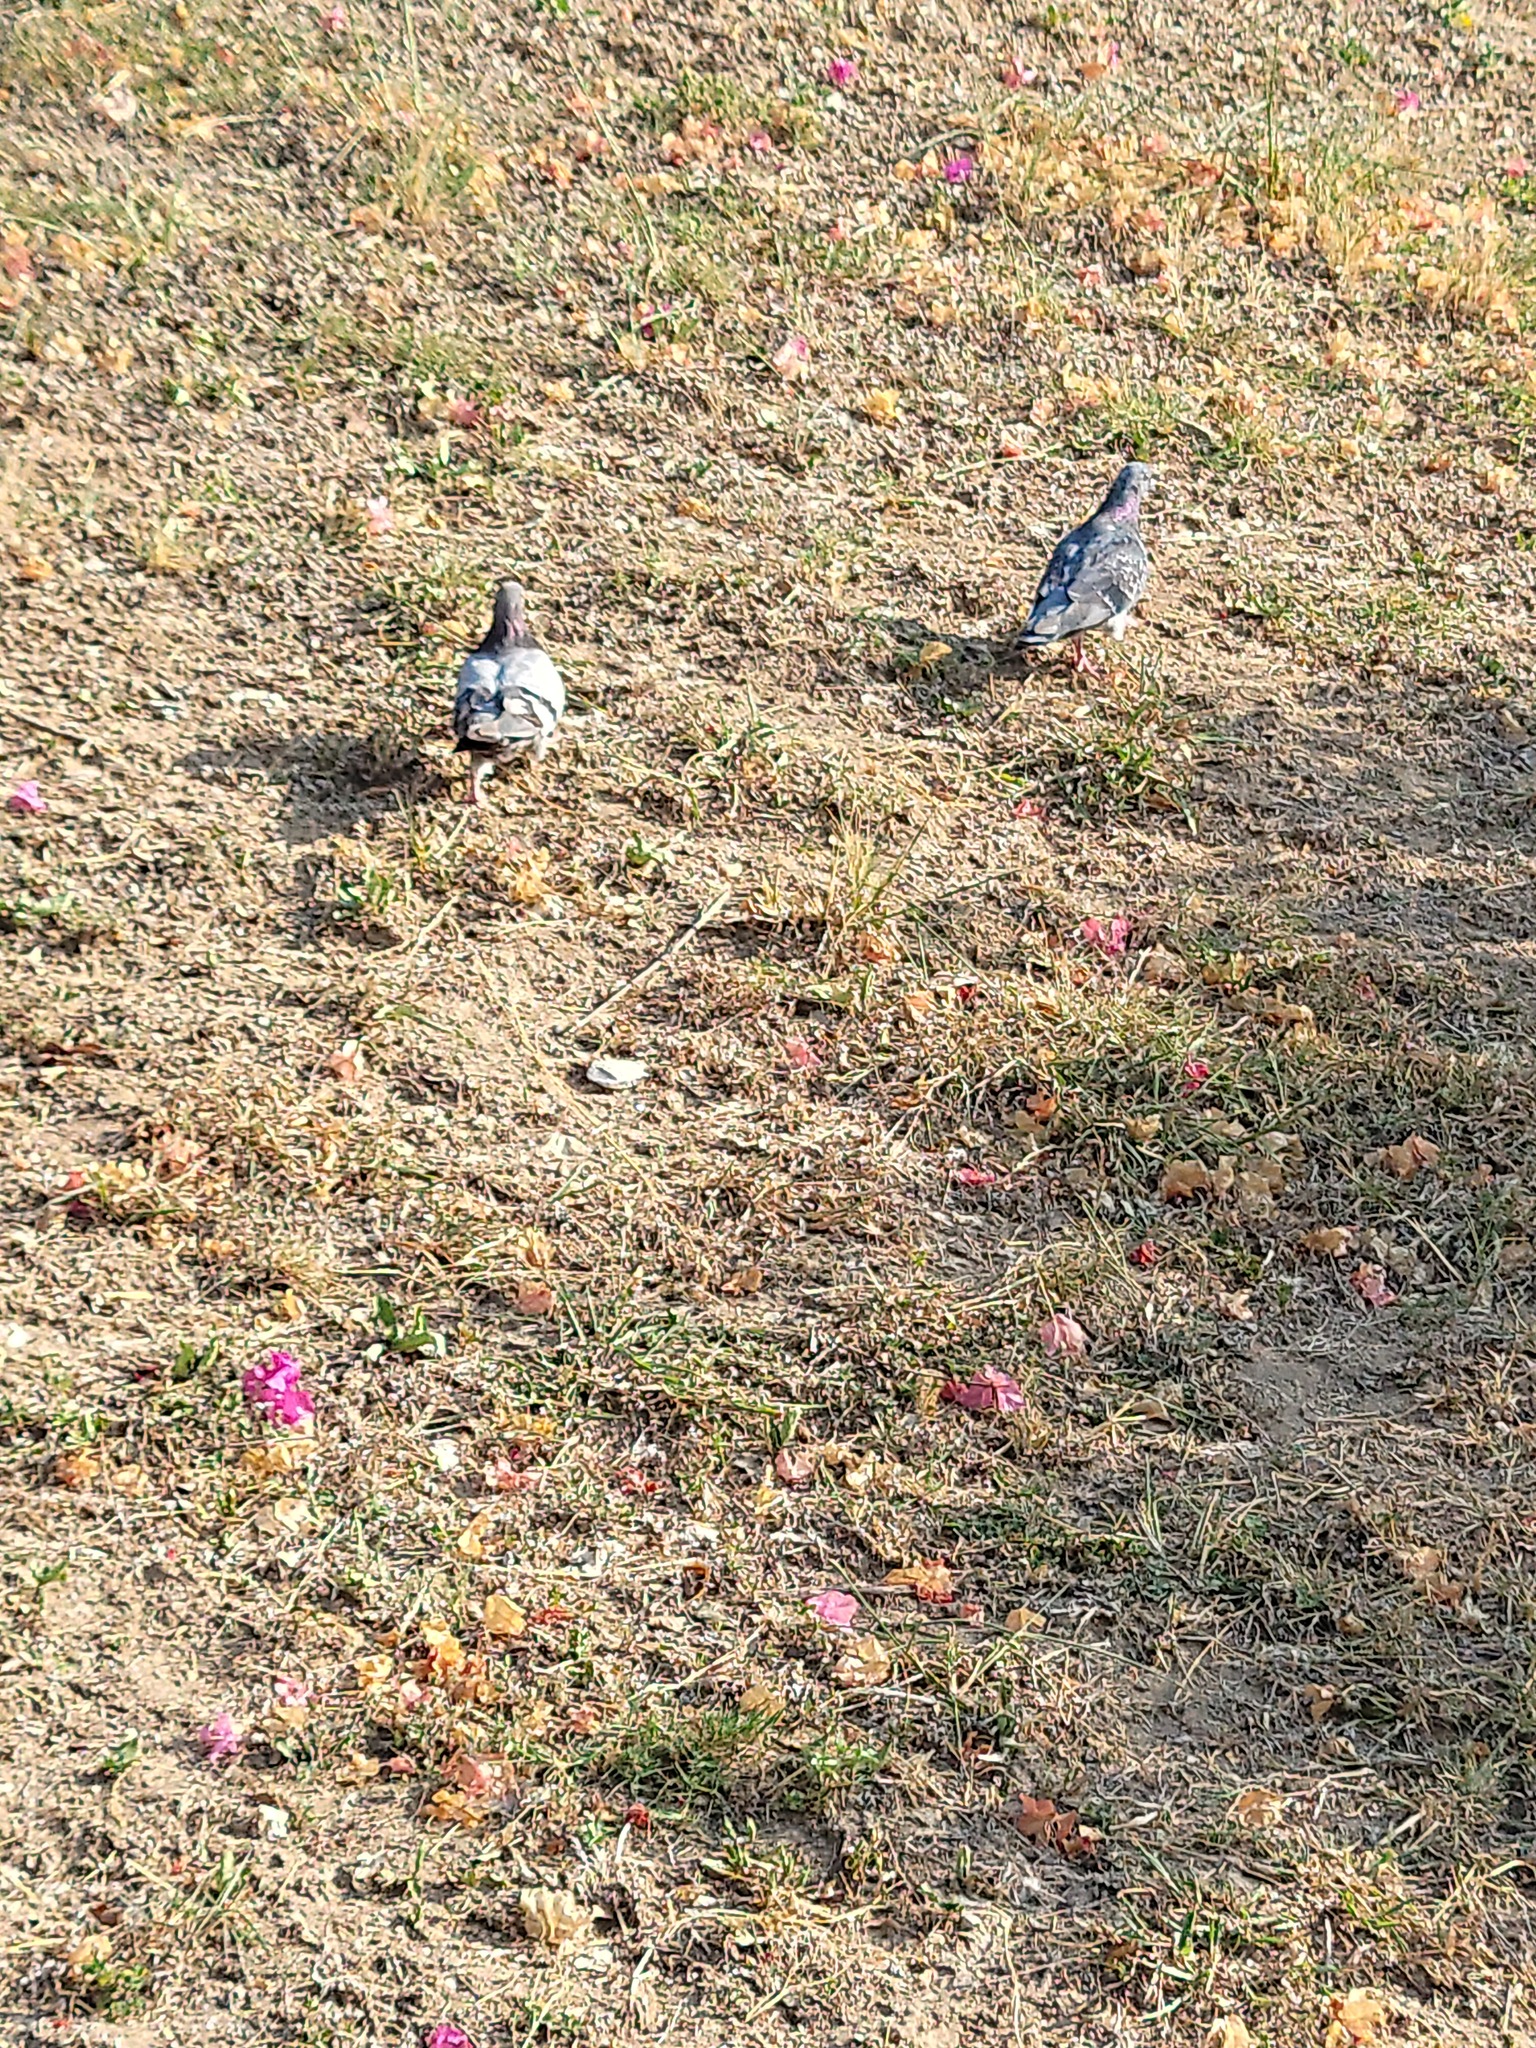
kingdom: Animalia
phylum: Chordata
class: Aves
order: Columbiformes
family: Columbidae
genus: Columba
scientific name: Columba livia
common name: Rock pigeon
